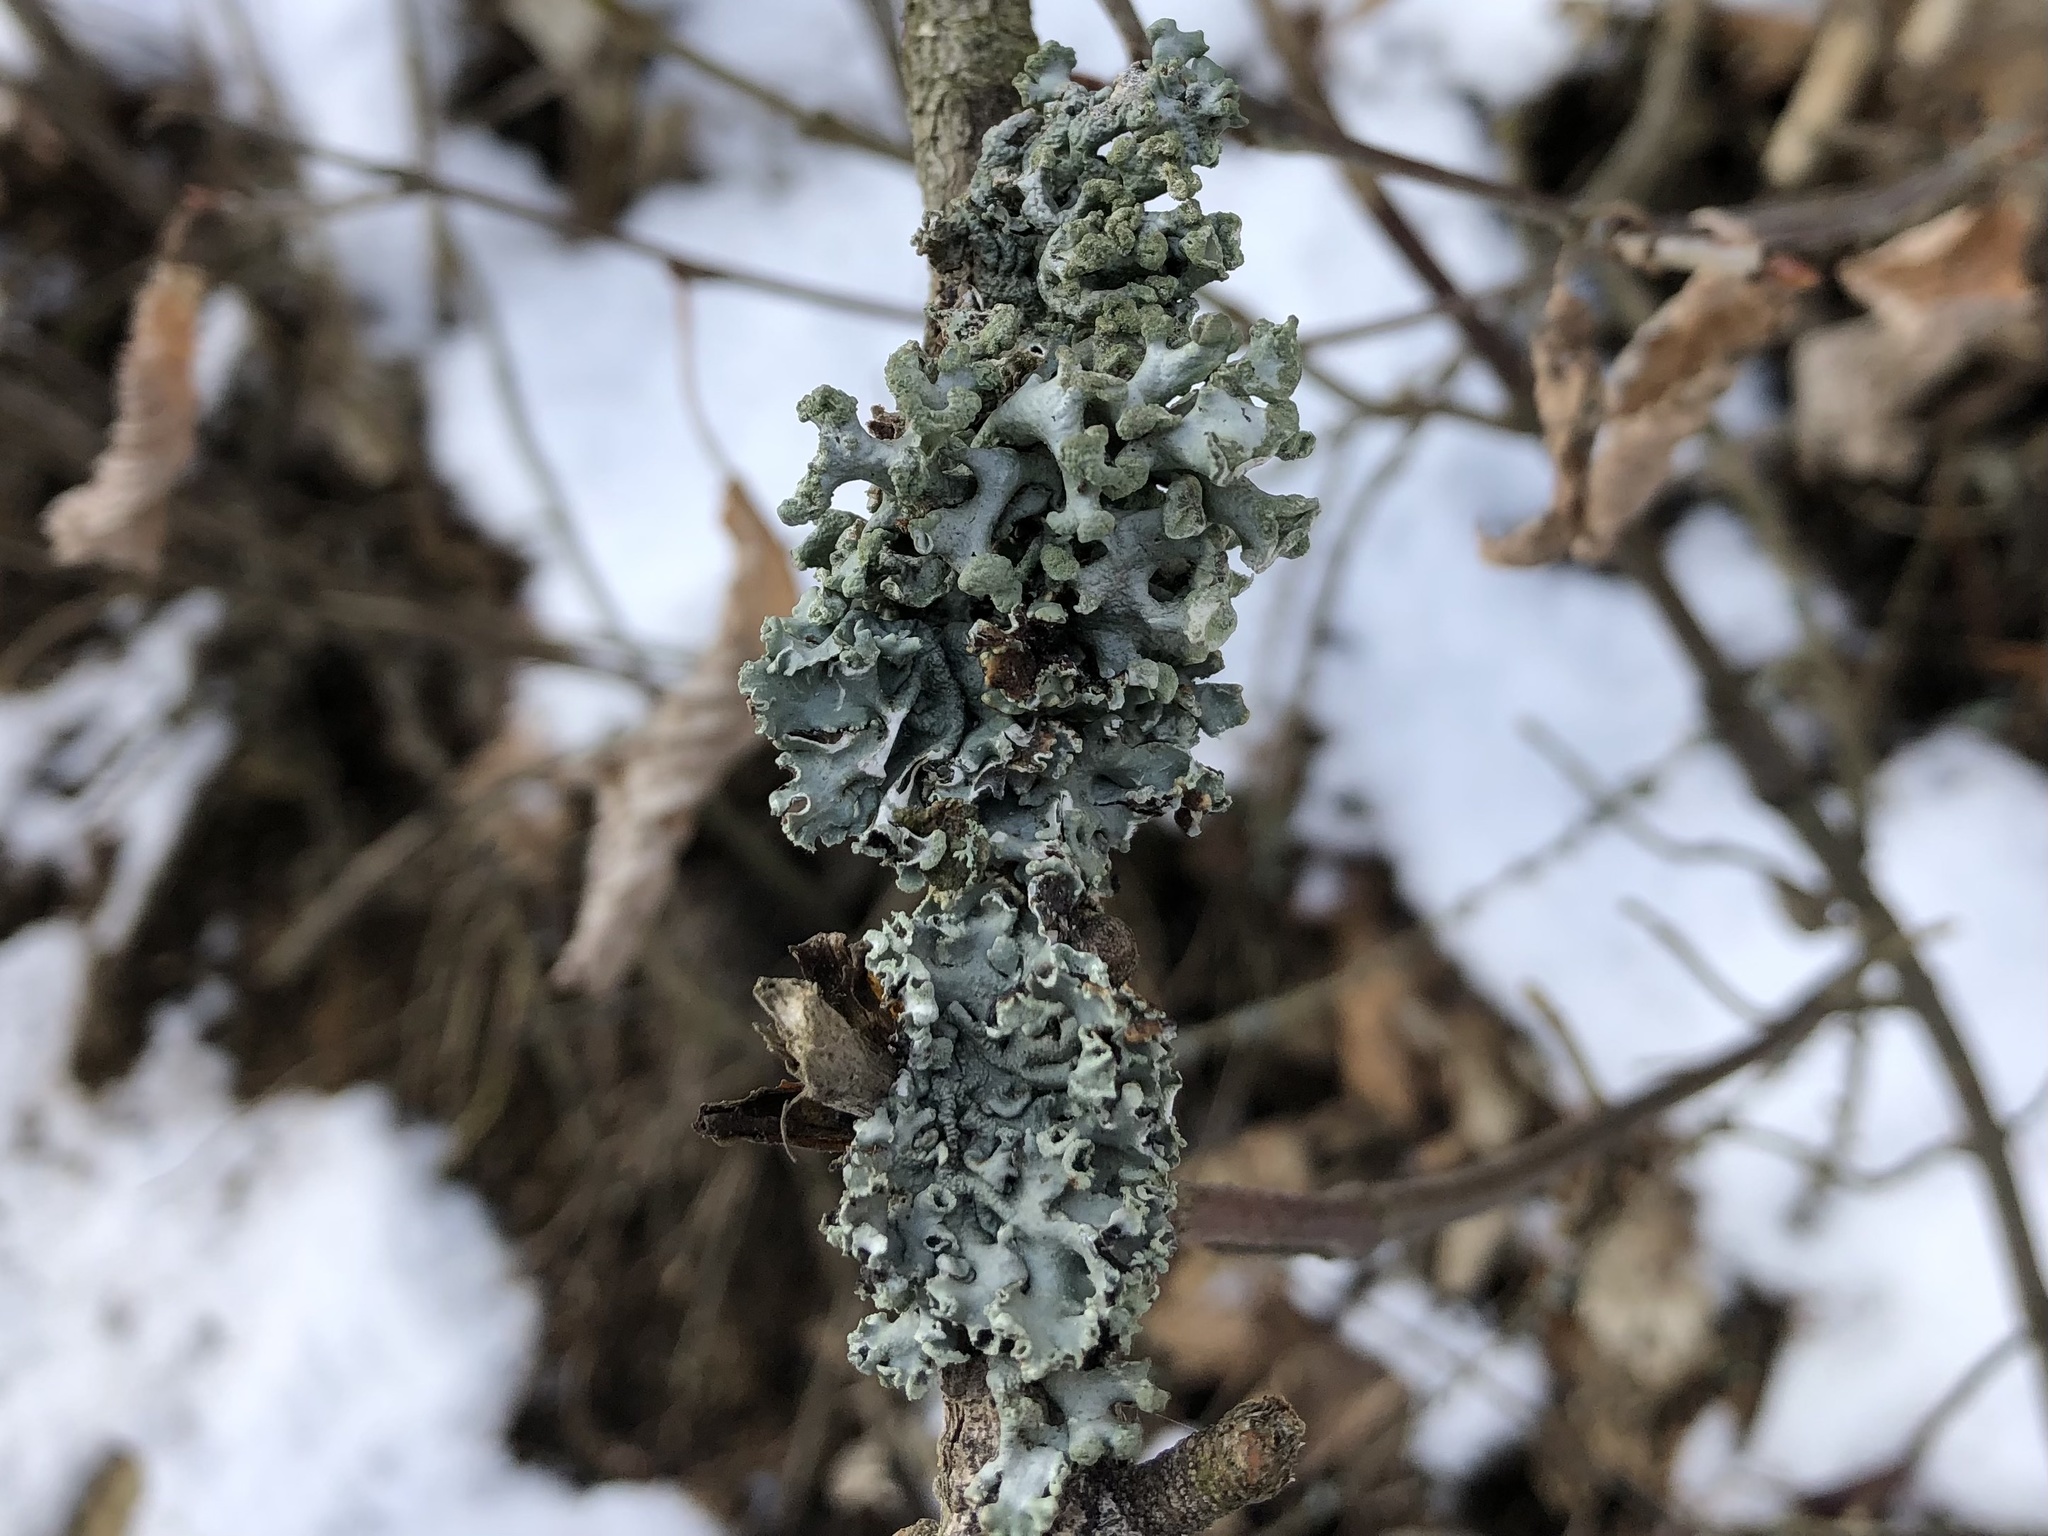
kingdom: Fungi
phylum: Ascomycota
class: Lecanoromycetes
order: Lecanorales
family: Parmeliaceae
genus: Hypogymnia
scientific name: Hypogymnia tubulosa
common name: Powder-headed tube lichen
